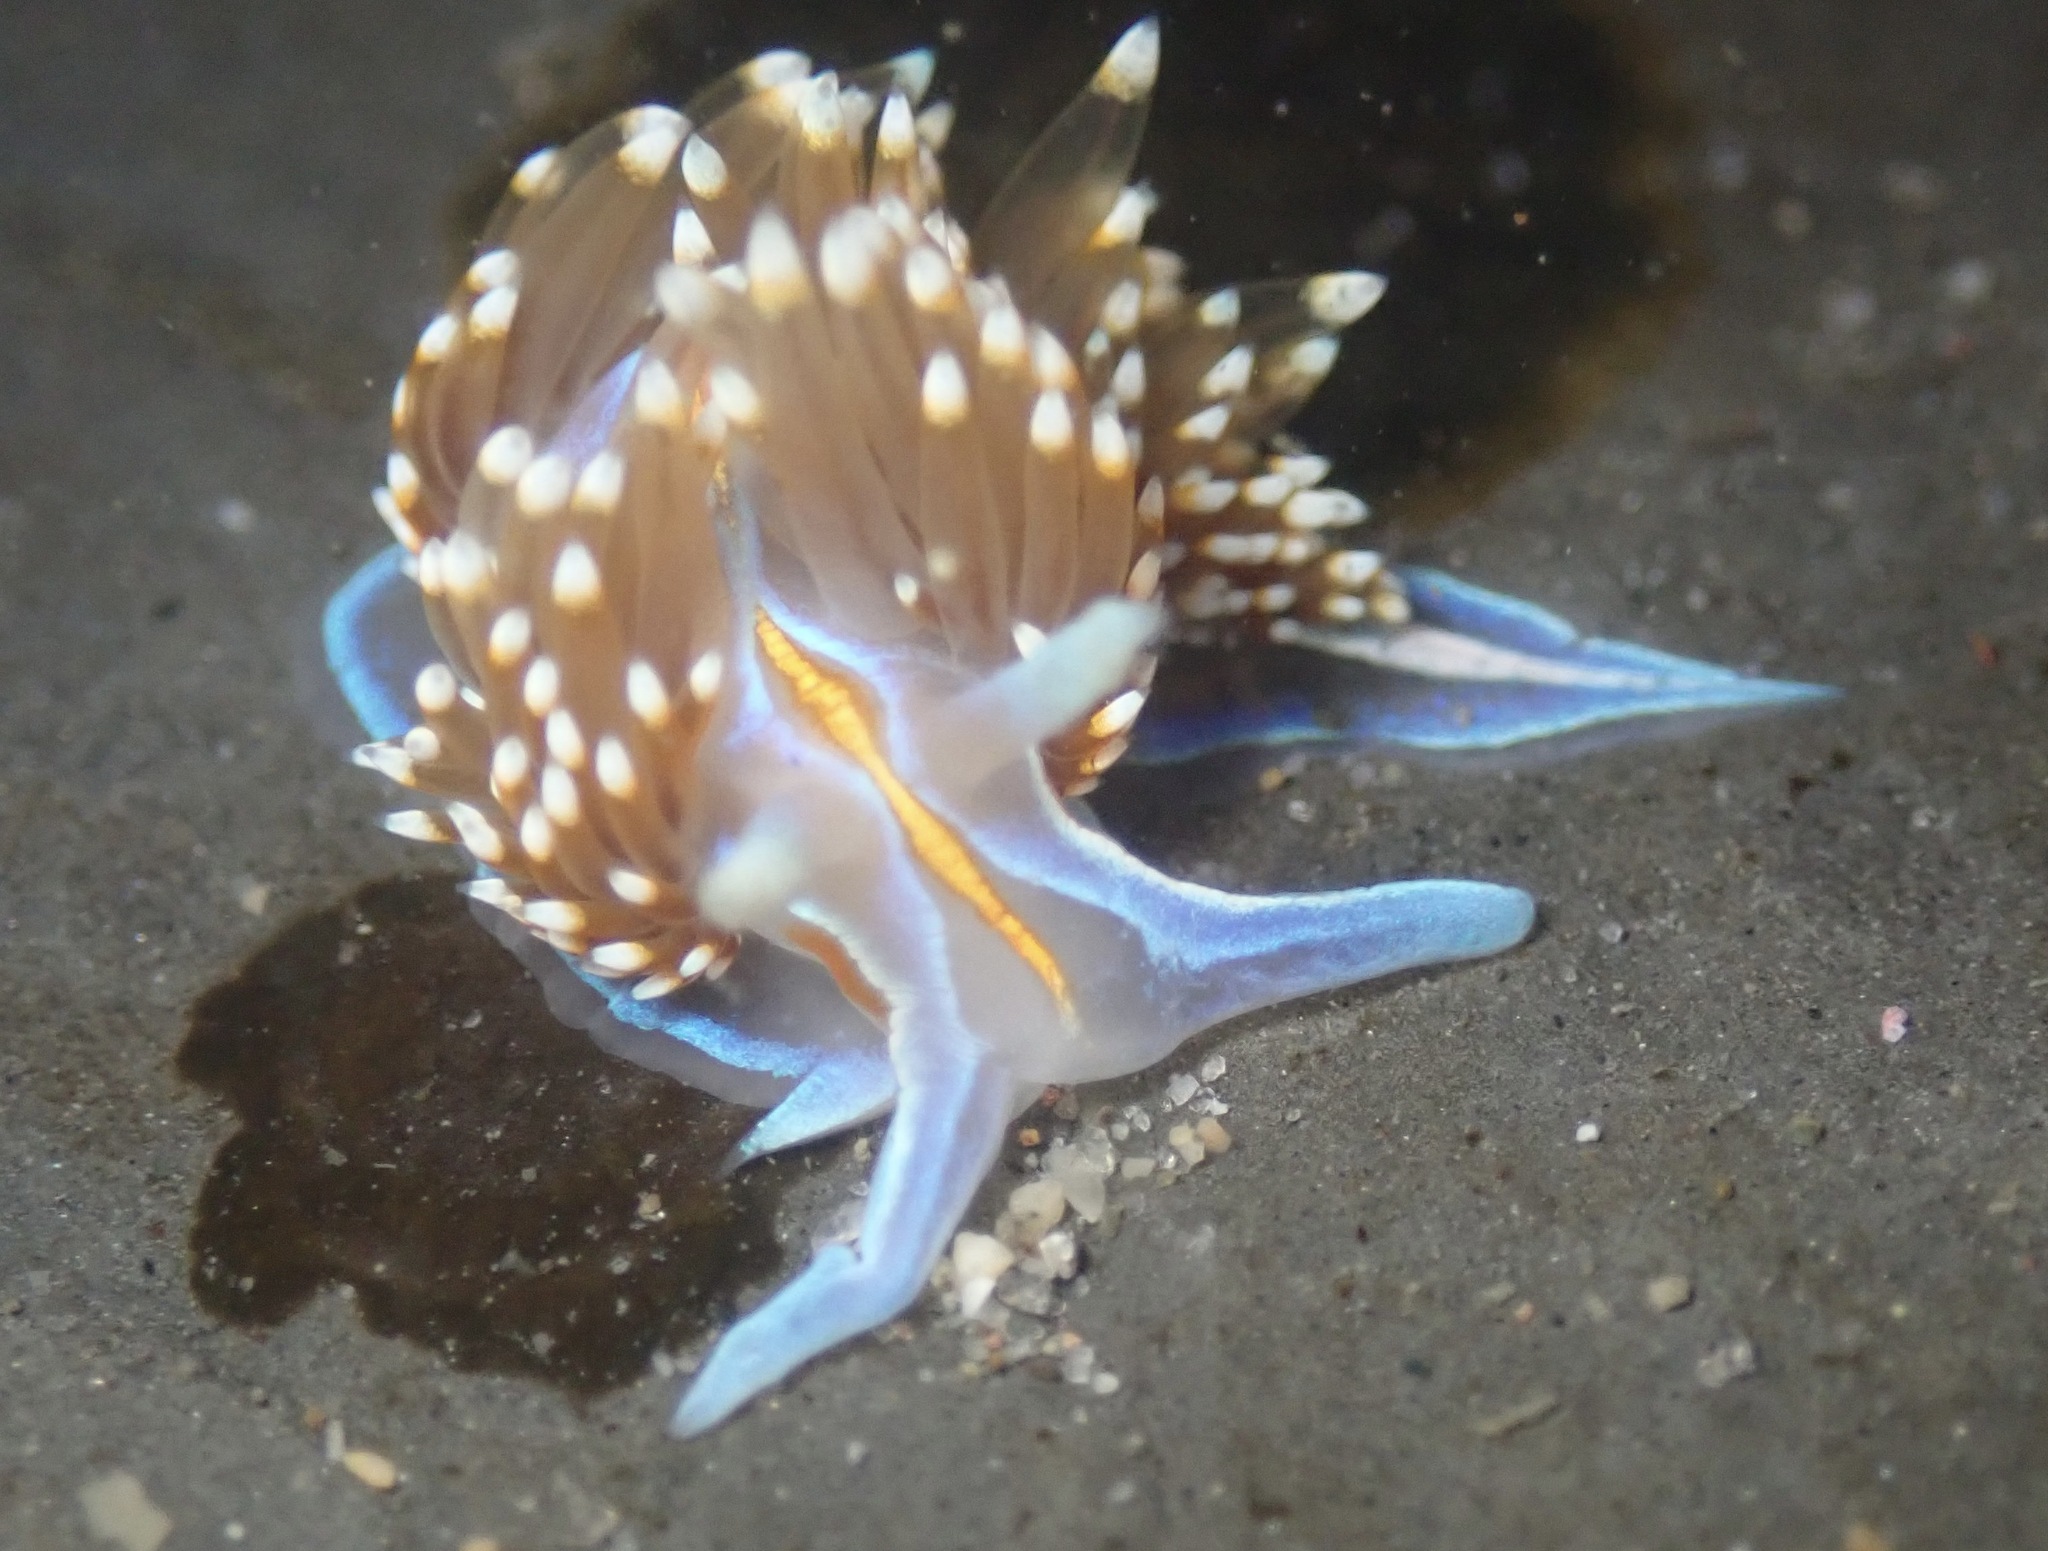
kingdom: Animalia
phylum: Mollusca
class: Gastropoda
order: Nudibranchia
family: Myrrhinidae
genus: Hermissenda
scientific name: Hermissenda opalescens
